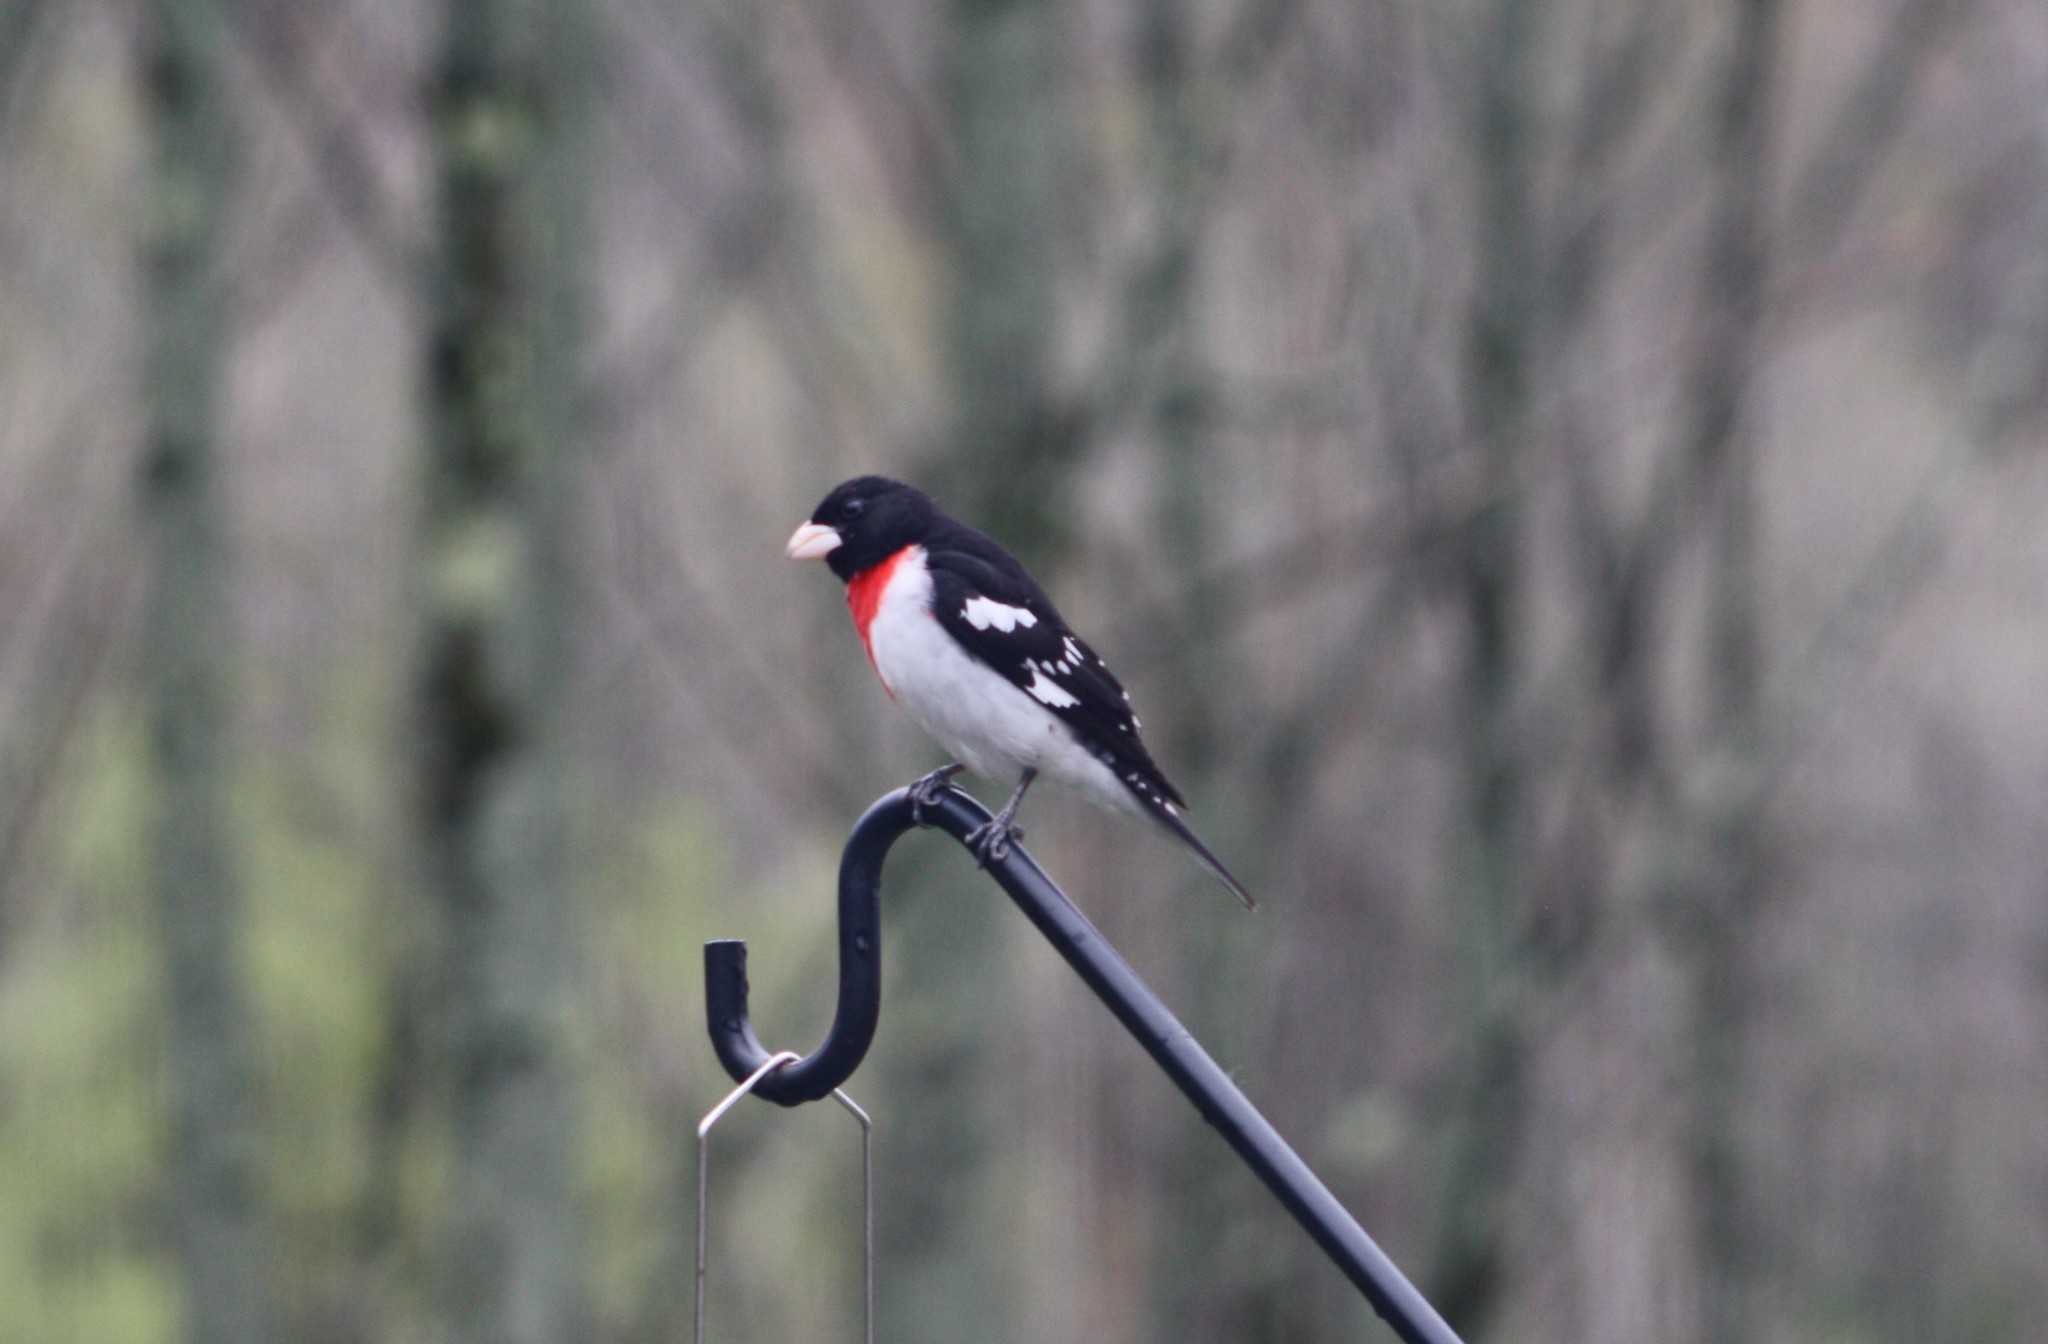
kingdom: Animalia
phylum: Chordata
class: Aves
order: Passeriformes
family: Cardinalidae
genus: Pheucticus
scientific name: Pheucticus ludovicianus
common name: Rose-breasted grosbeak
